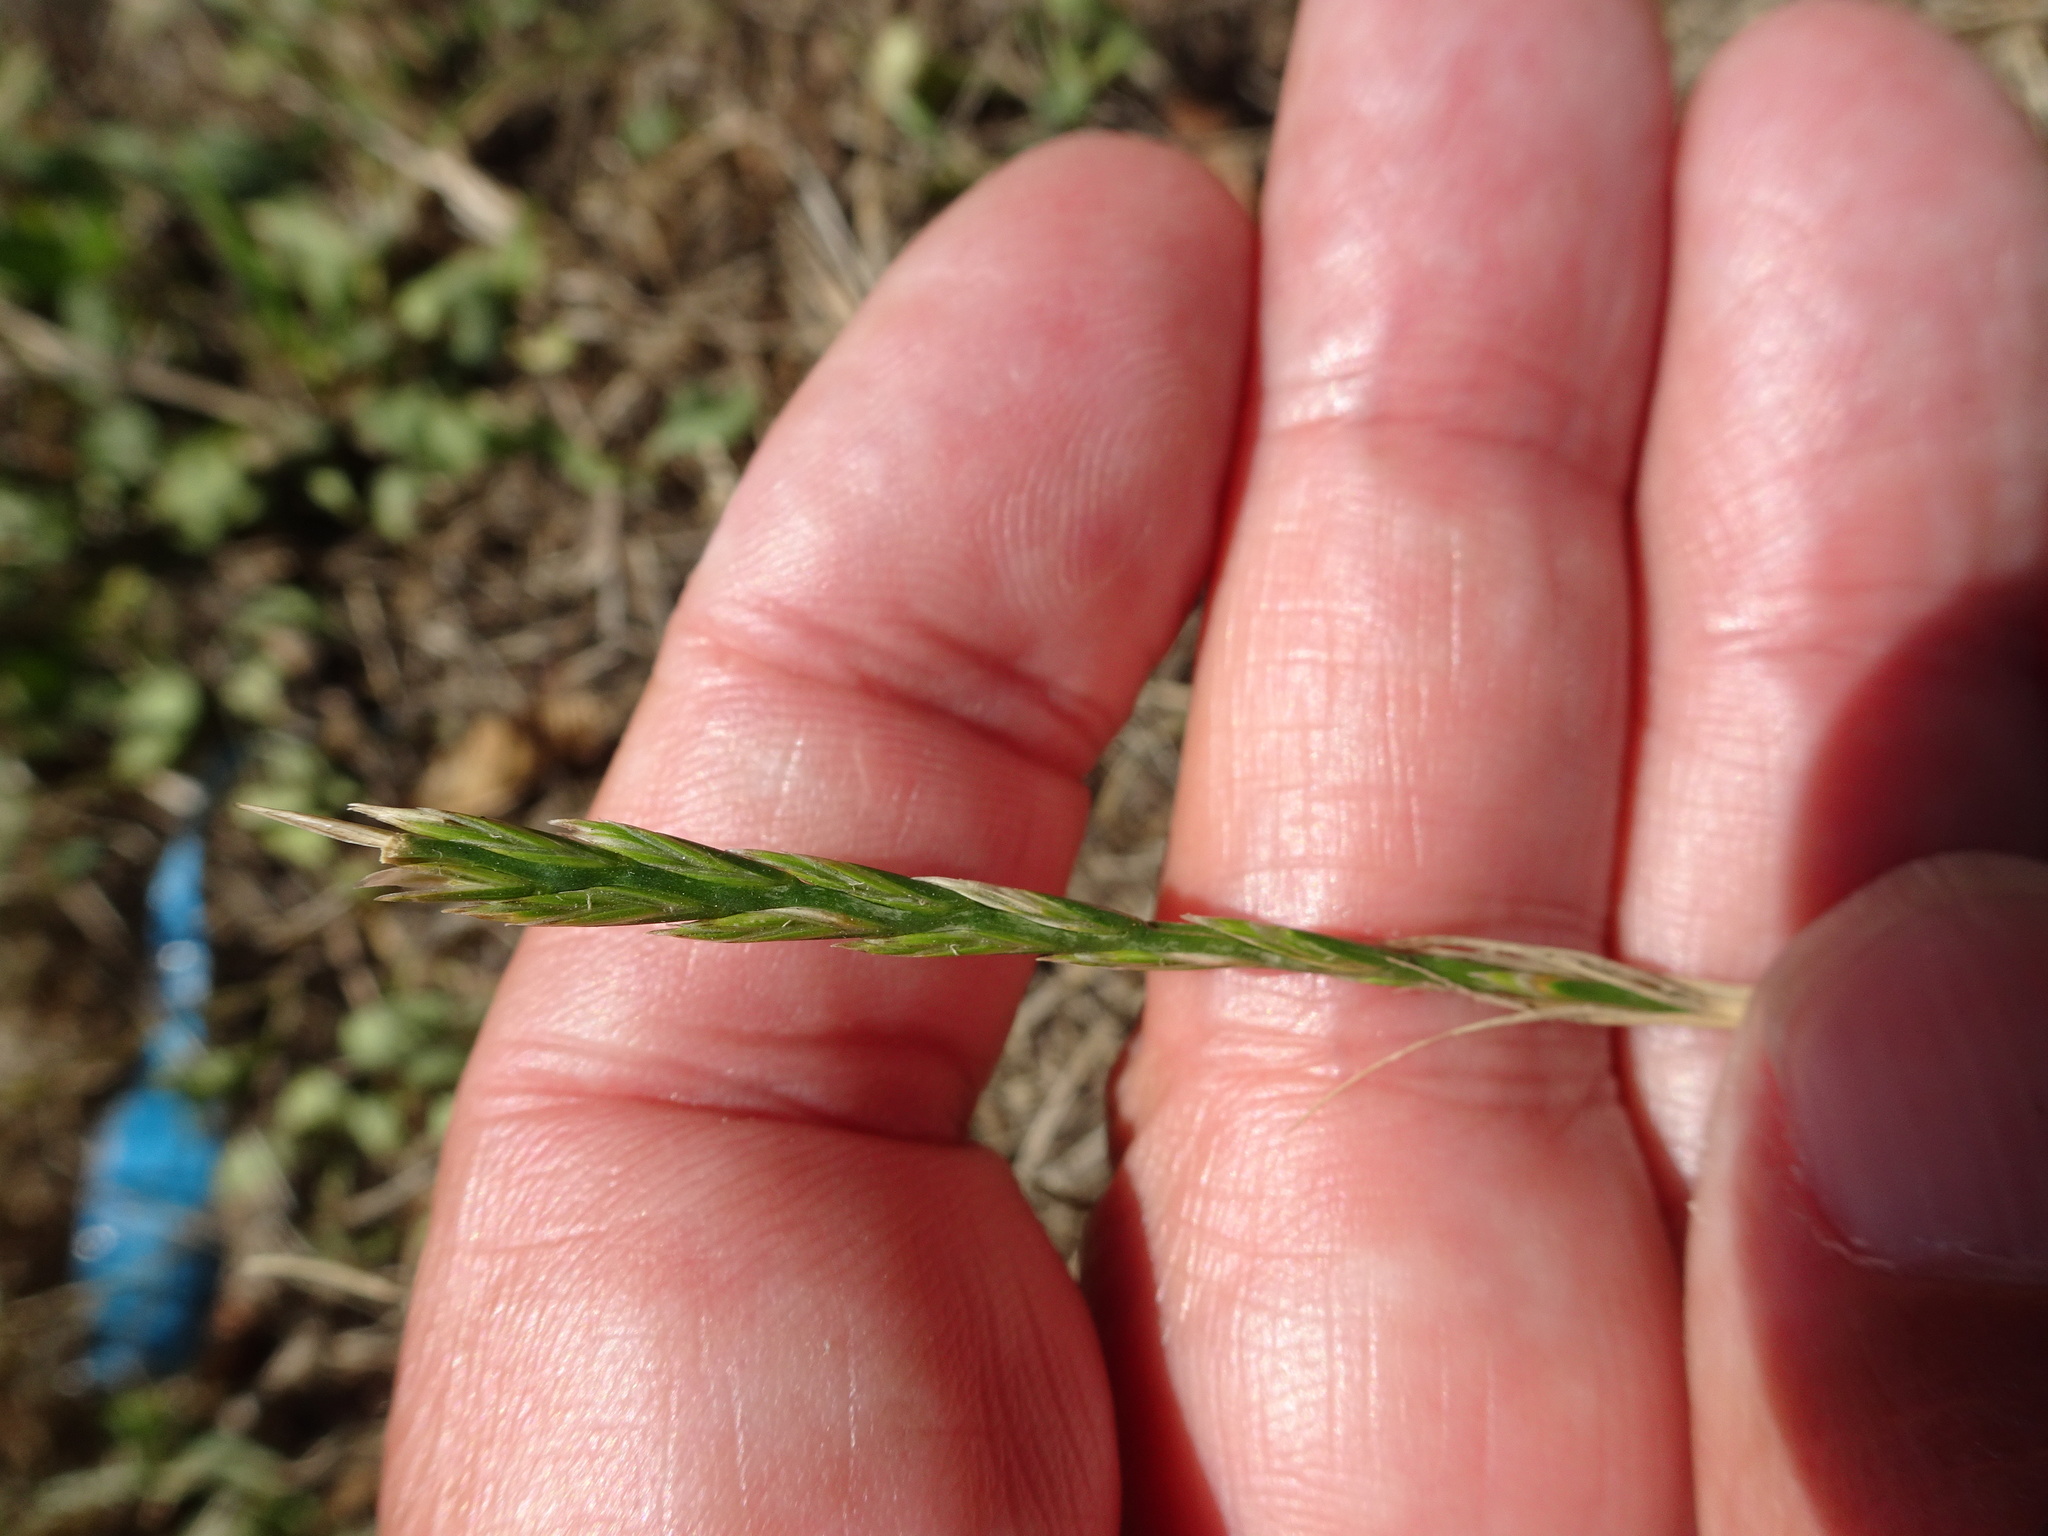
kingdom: Plantae
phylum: Tracheophyta
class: Liliopsida
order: Poales
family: Poaceae
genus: Lolium
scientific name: Lolium perenne
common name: Perennial ryegrass
